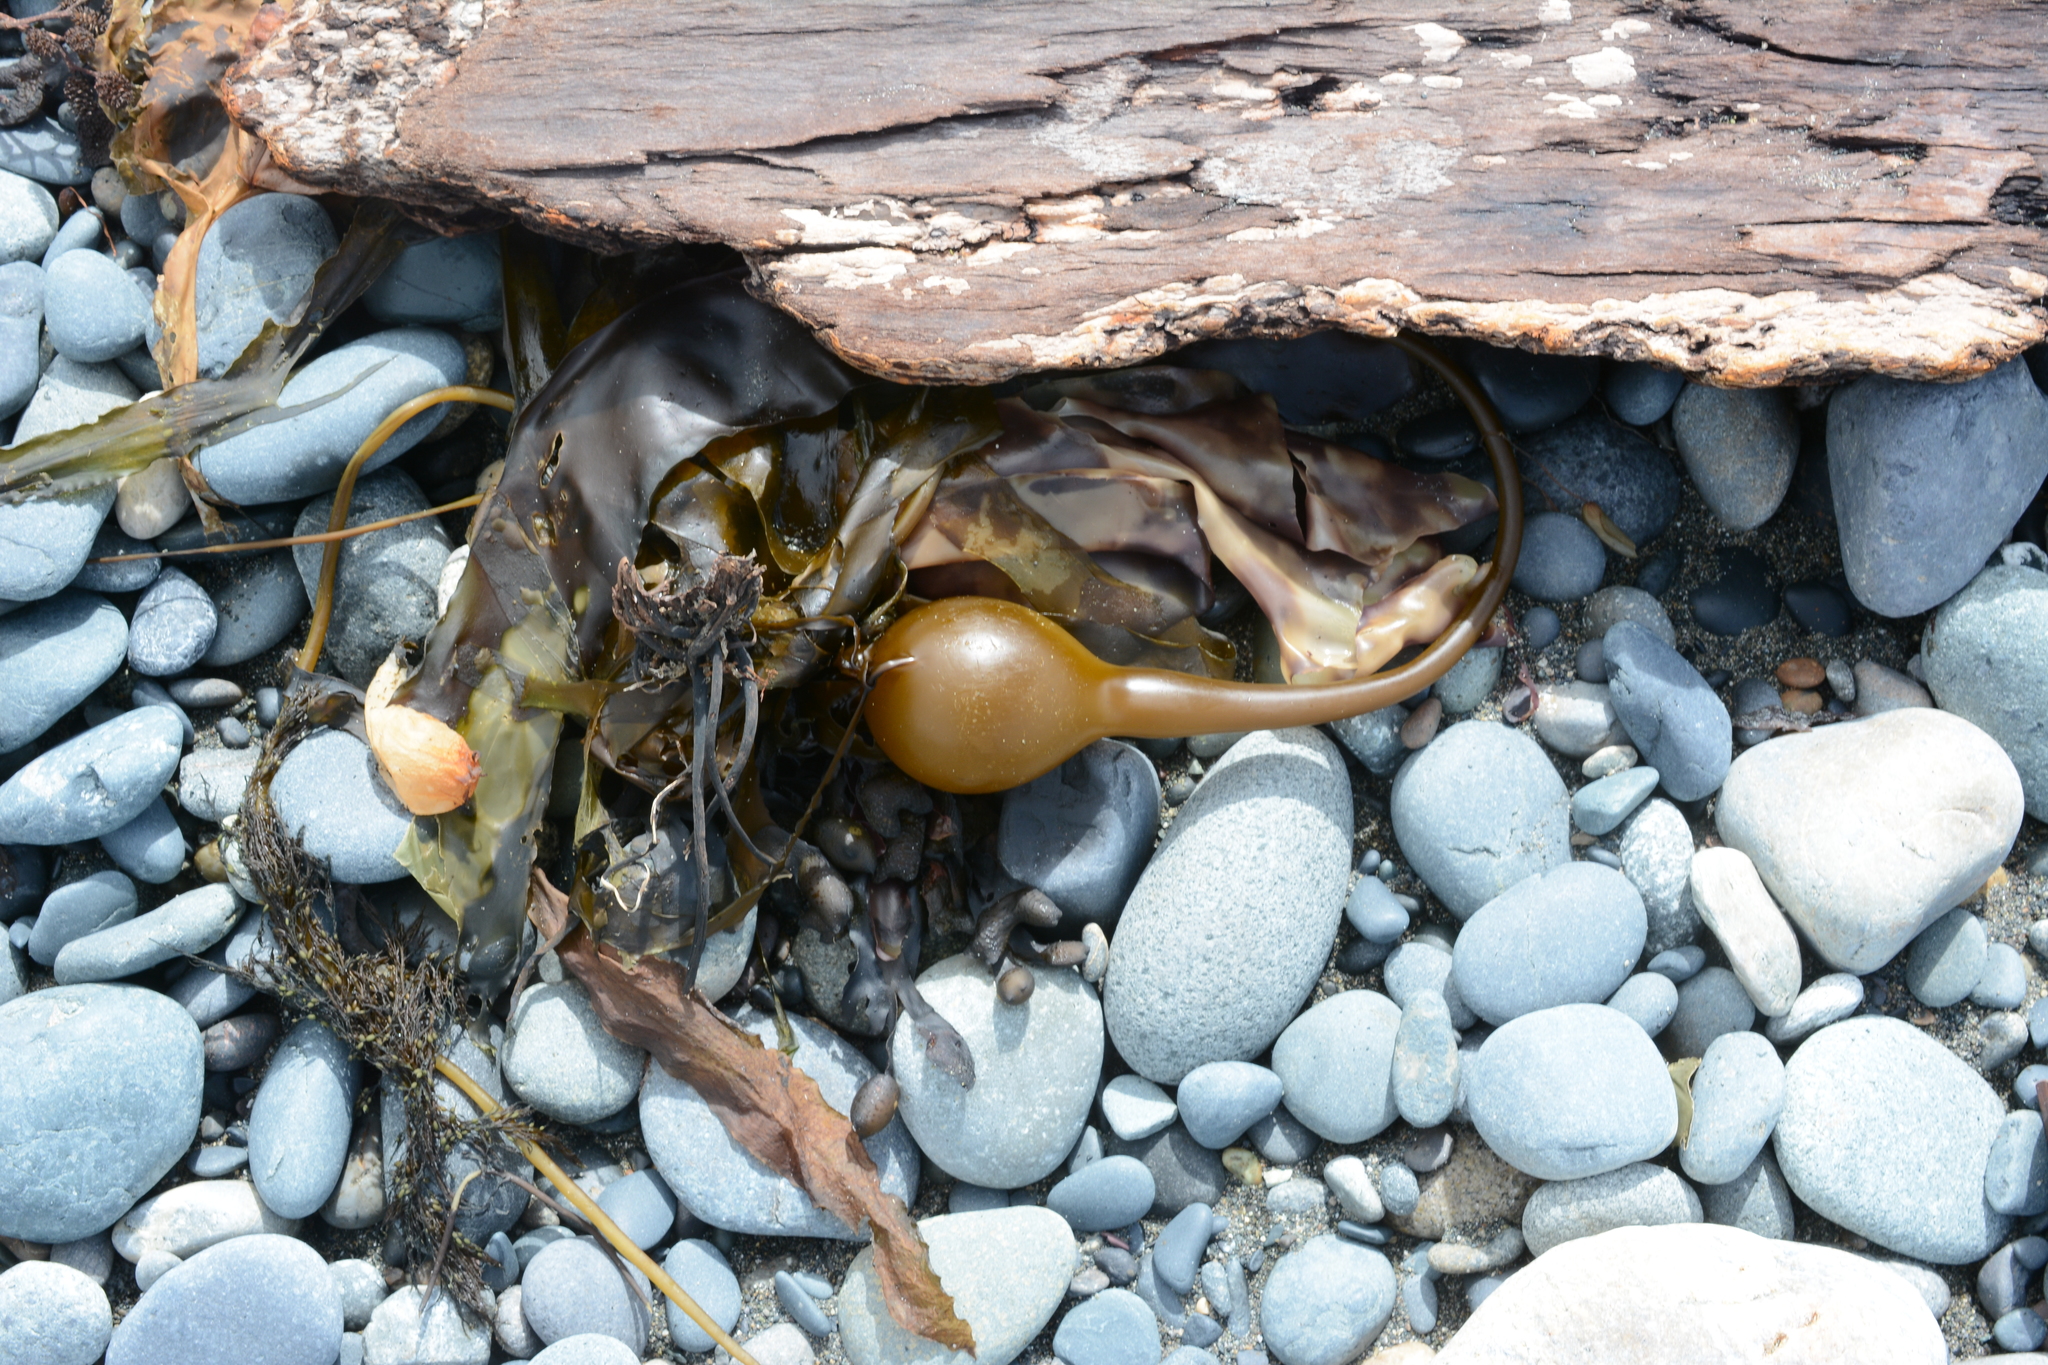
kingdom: Chromista
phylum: Ochrophyta
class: Phaeophyceae
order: Laminariales
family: Laminariaceae
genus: Nereocystis
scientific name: Nereocystis luetkeana
